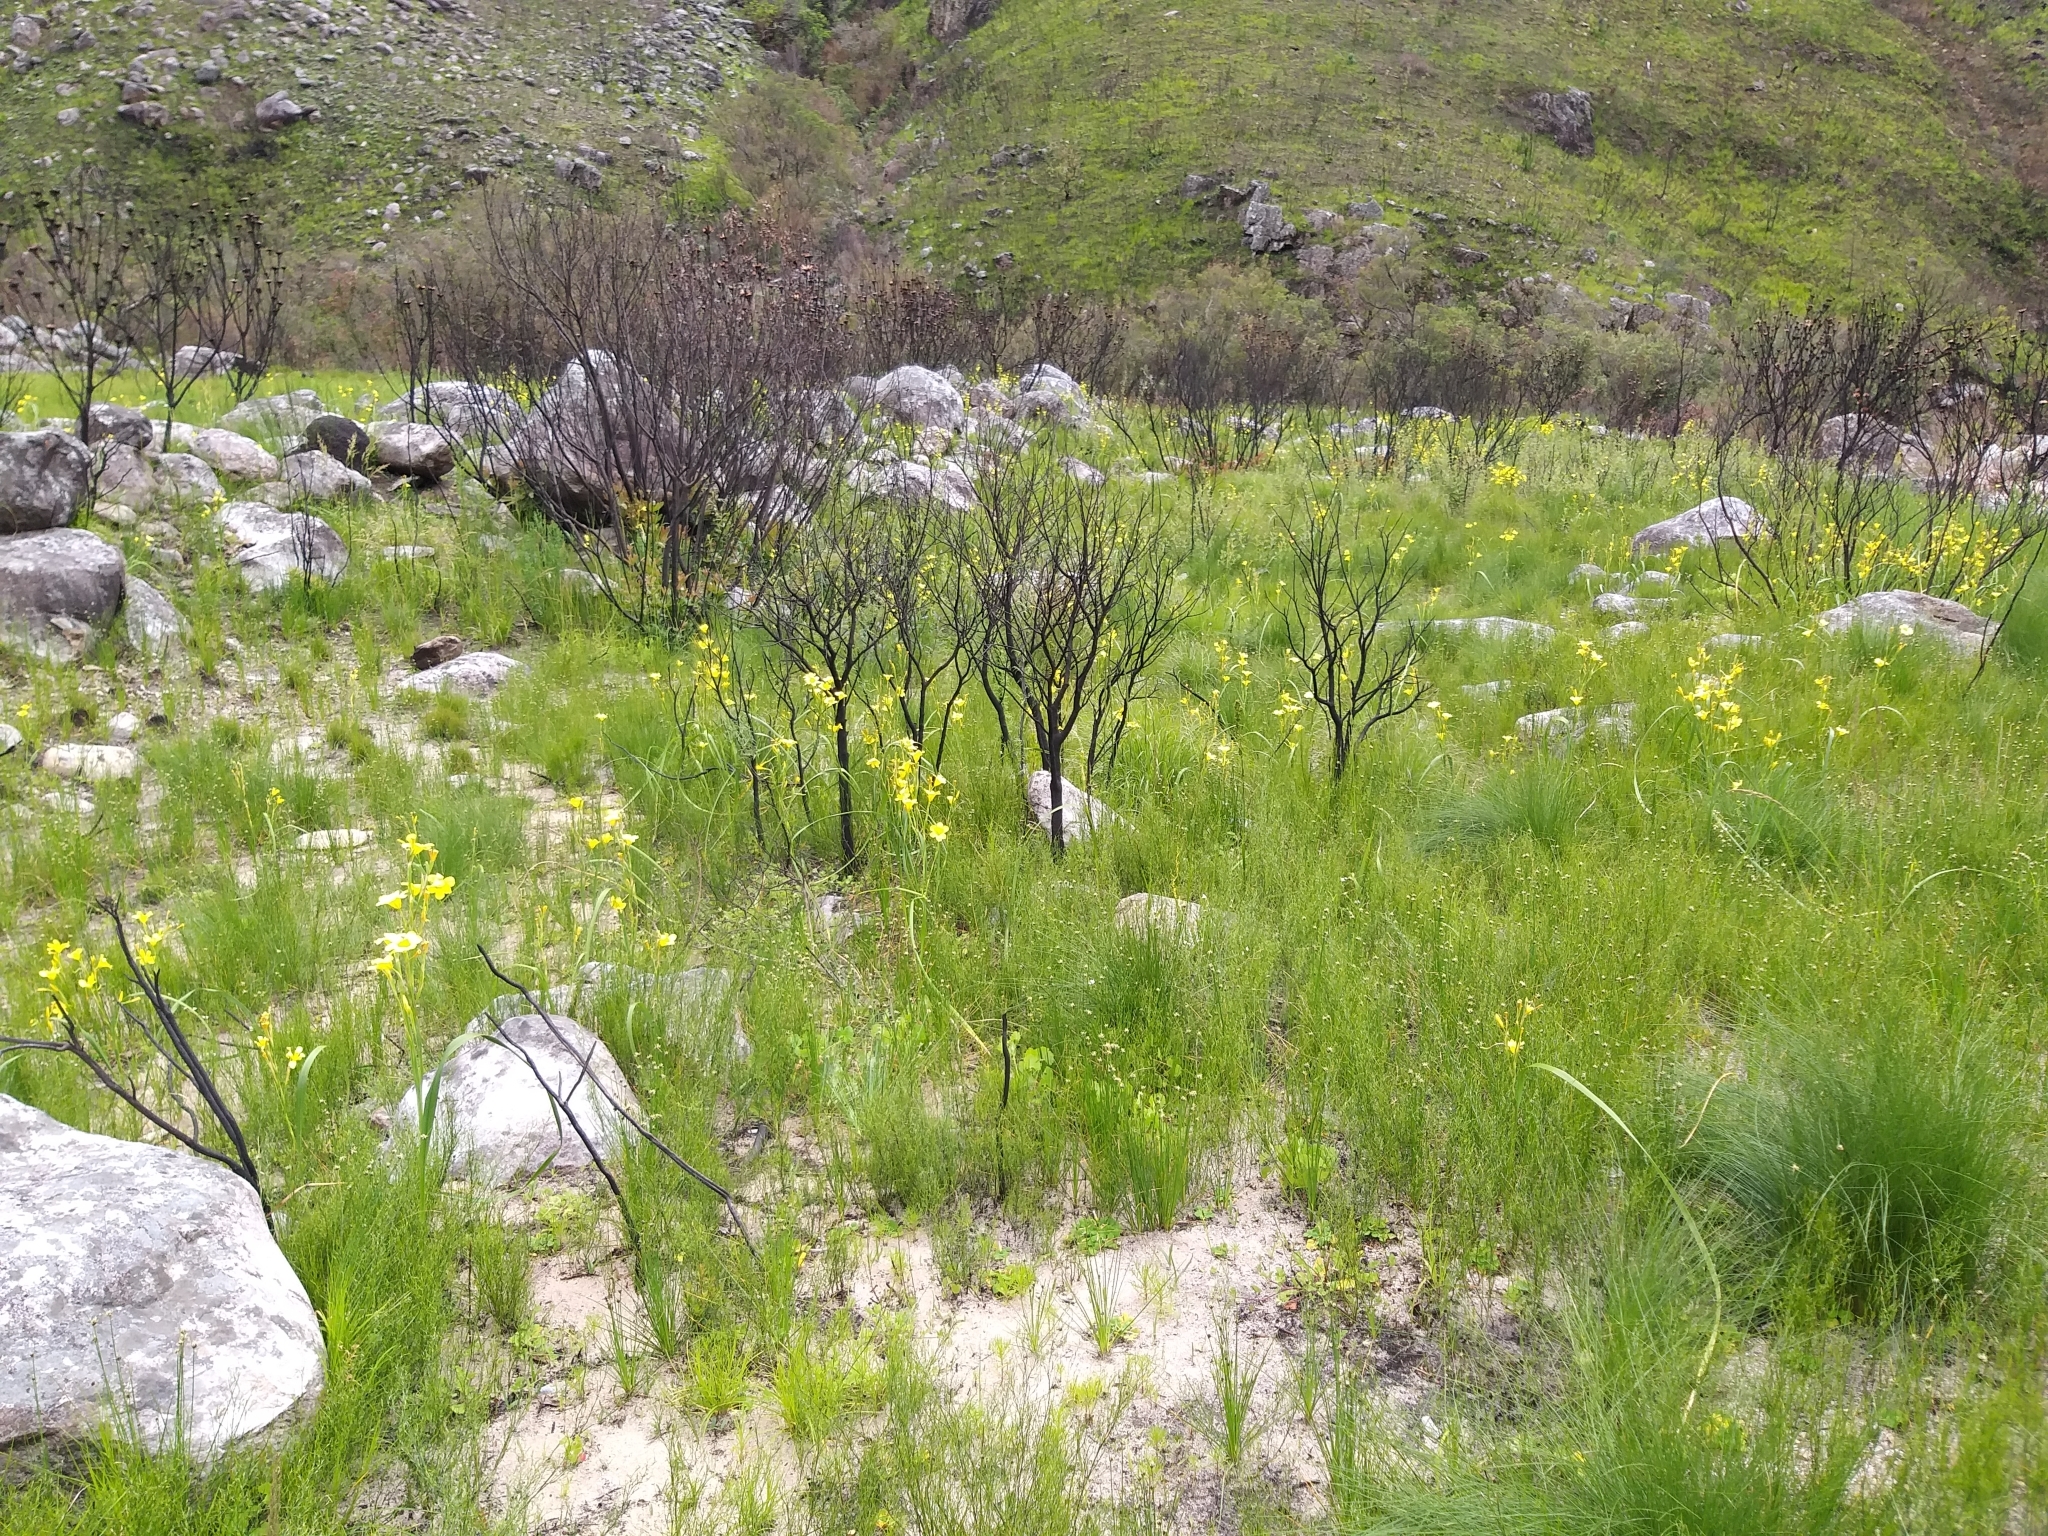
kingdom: Plantae
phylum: Tracheophyta
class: Liliopsida
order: Asparagales
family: Iridaceae
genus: Moraea
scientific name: Moraea ochroleuca
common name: Red tulp
